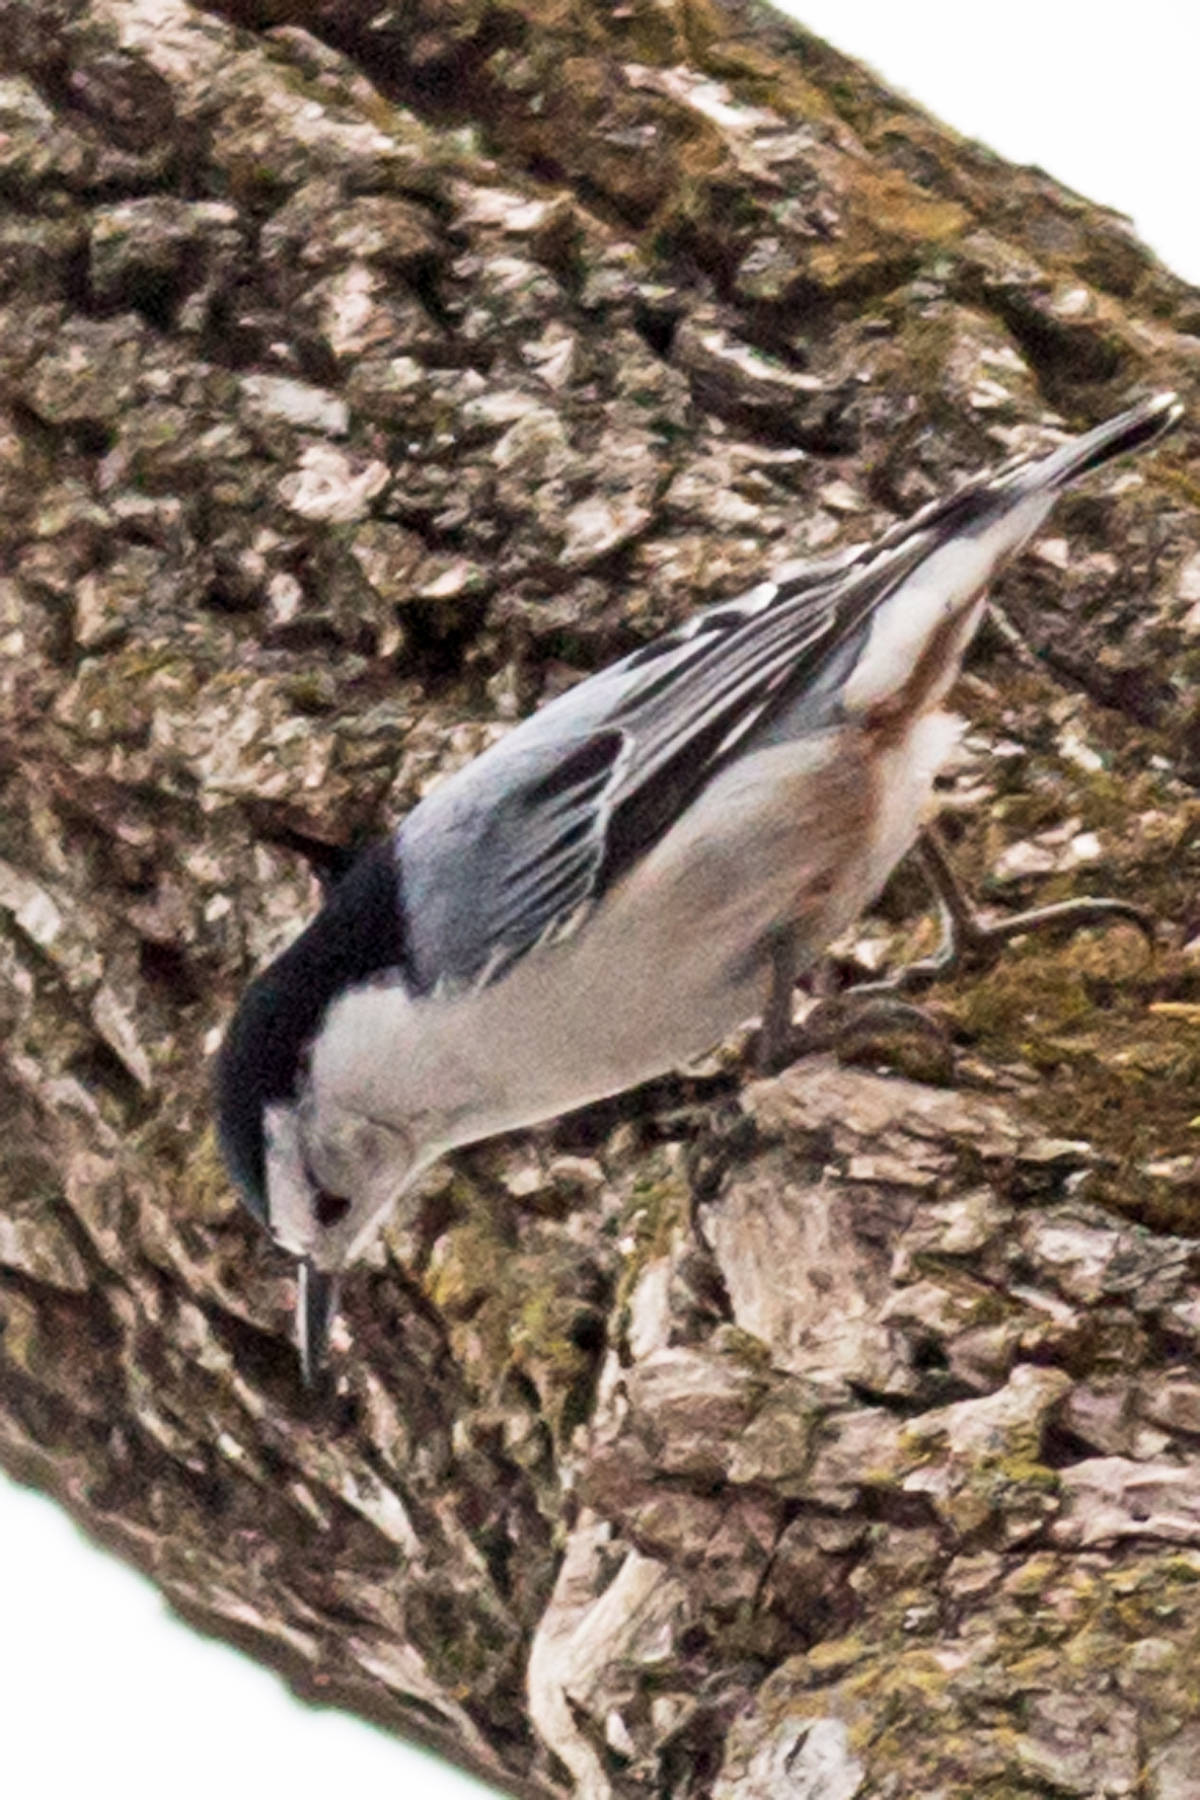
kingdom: Animalia
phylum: Chordata
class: Aves
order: Passeriformes
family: Sittidae
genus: Sitta
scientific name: Sitta carolinensis
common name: White-breasted nuthatch
